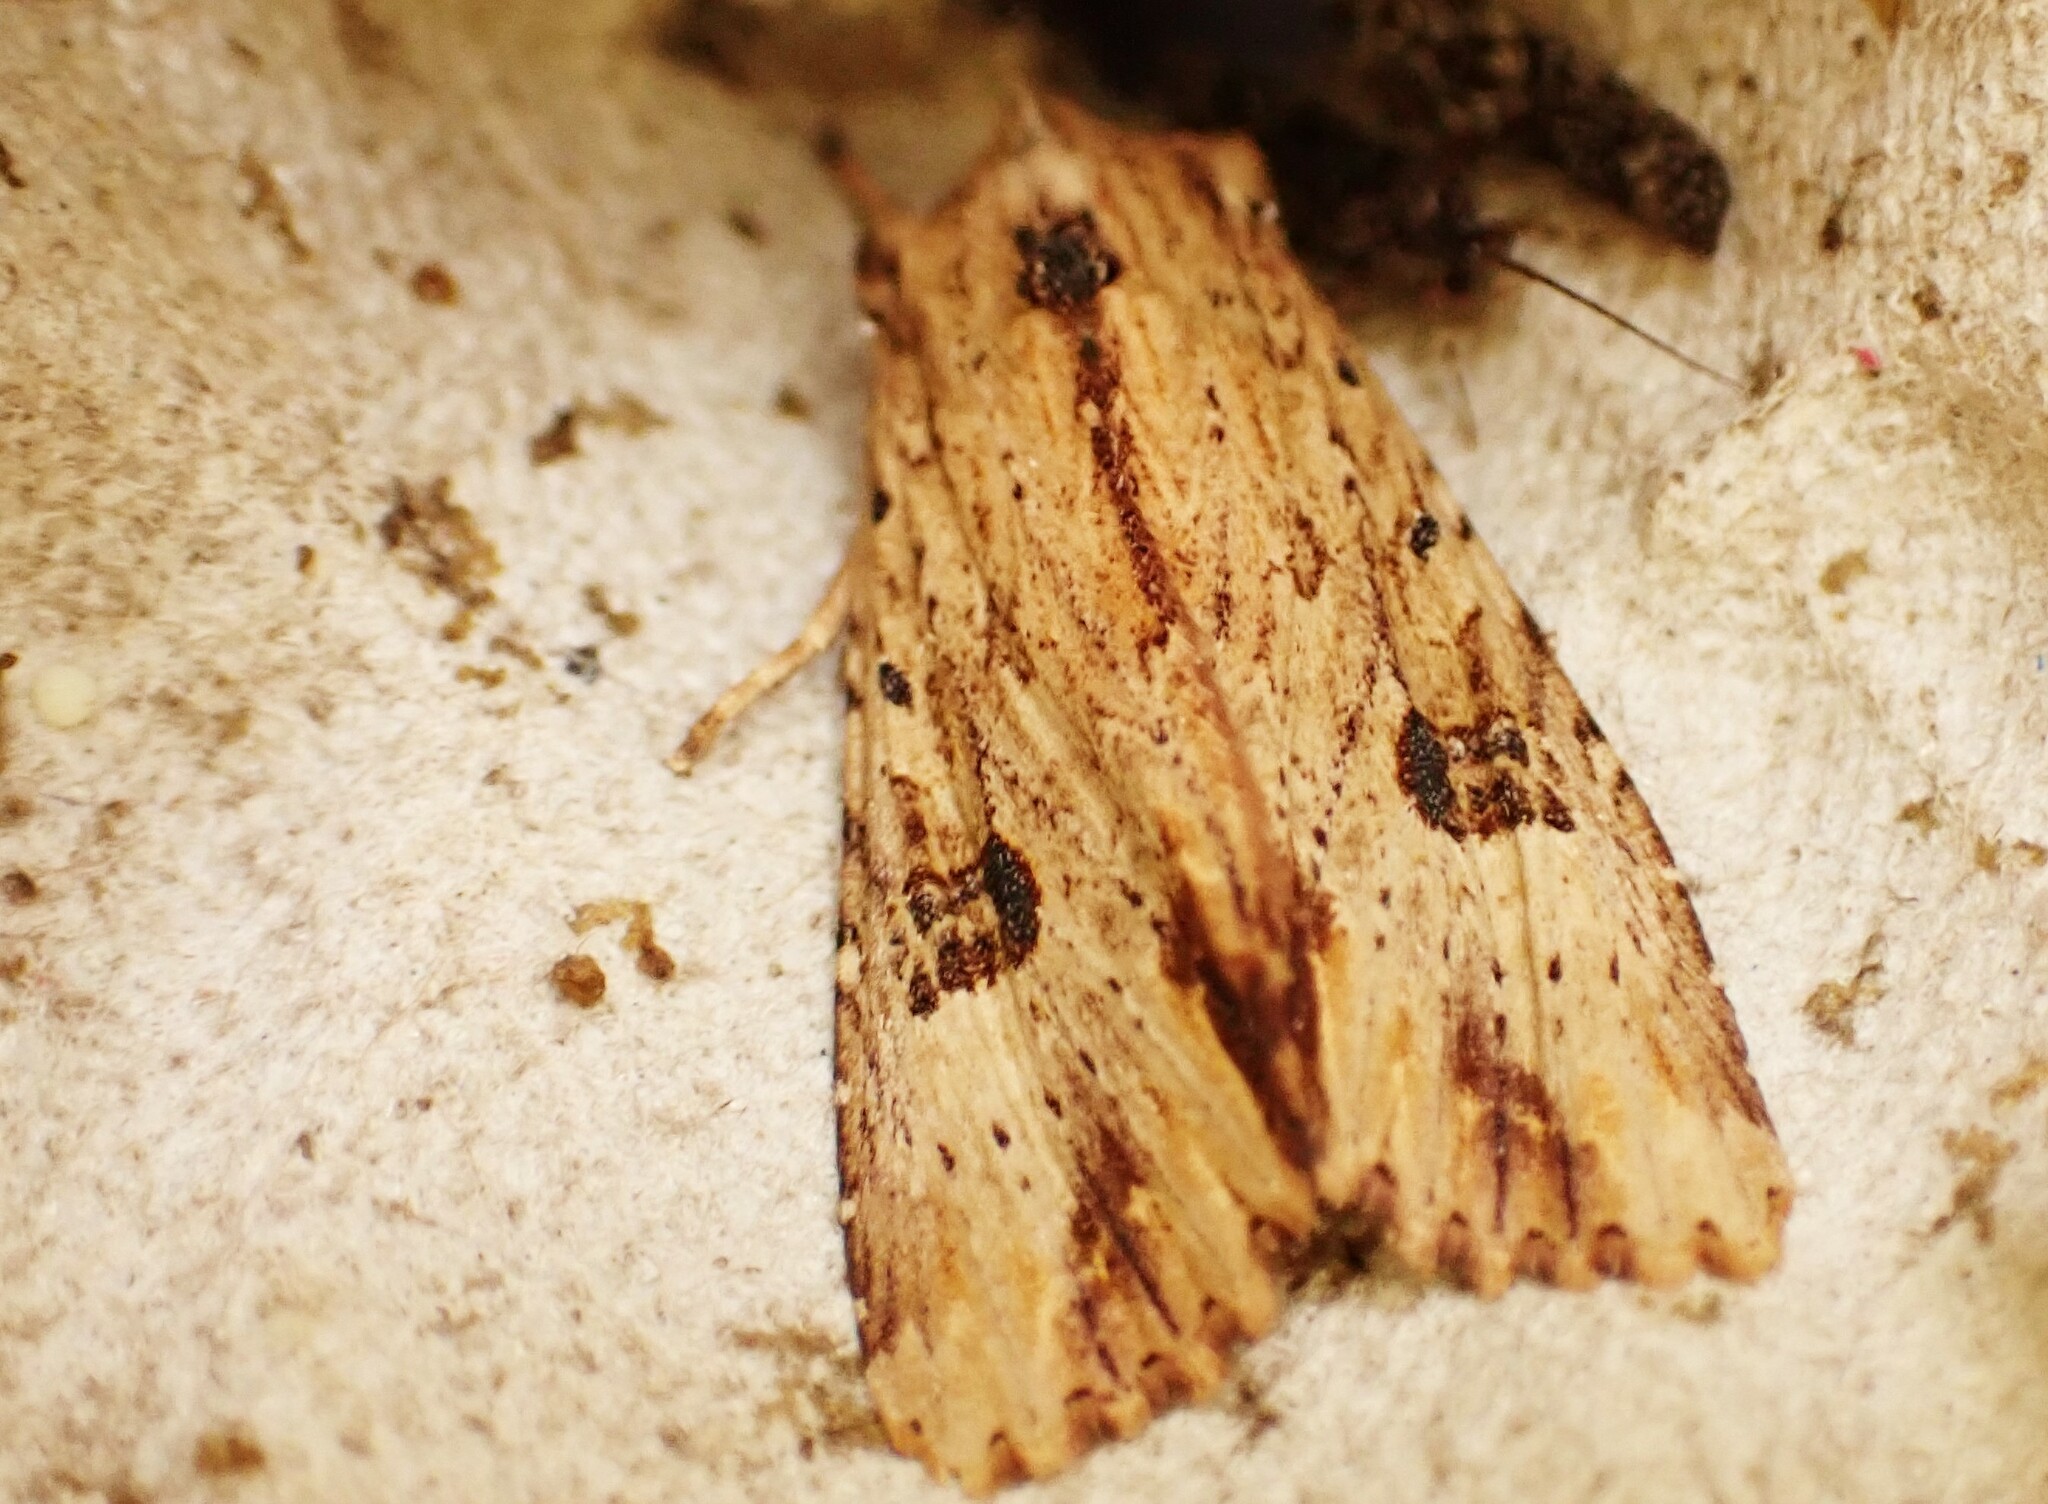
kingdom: Animalia
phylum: Arthropoda
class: Insecta
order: Lepidoptera
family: Noctuidae
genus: Ichneutica
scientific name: Ichneutica
